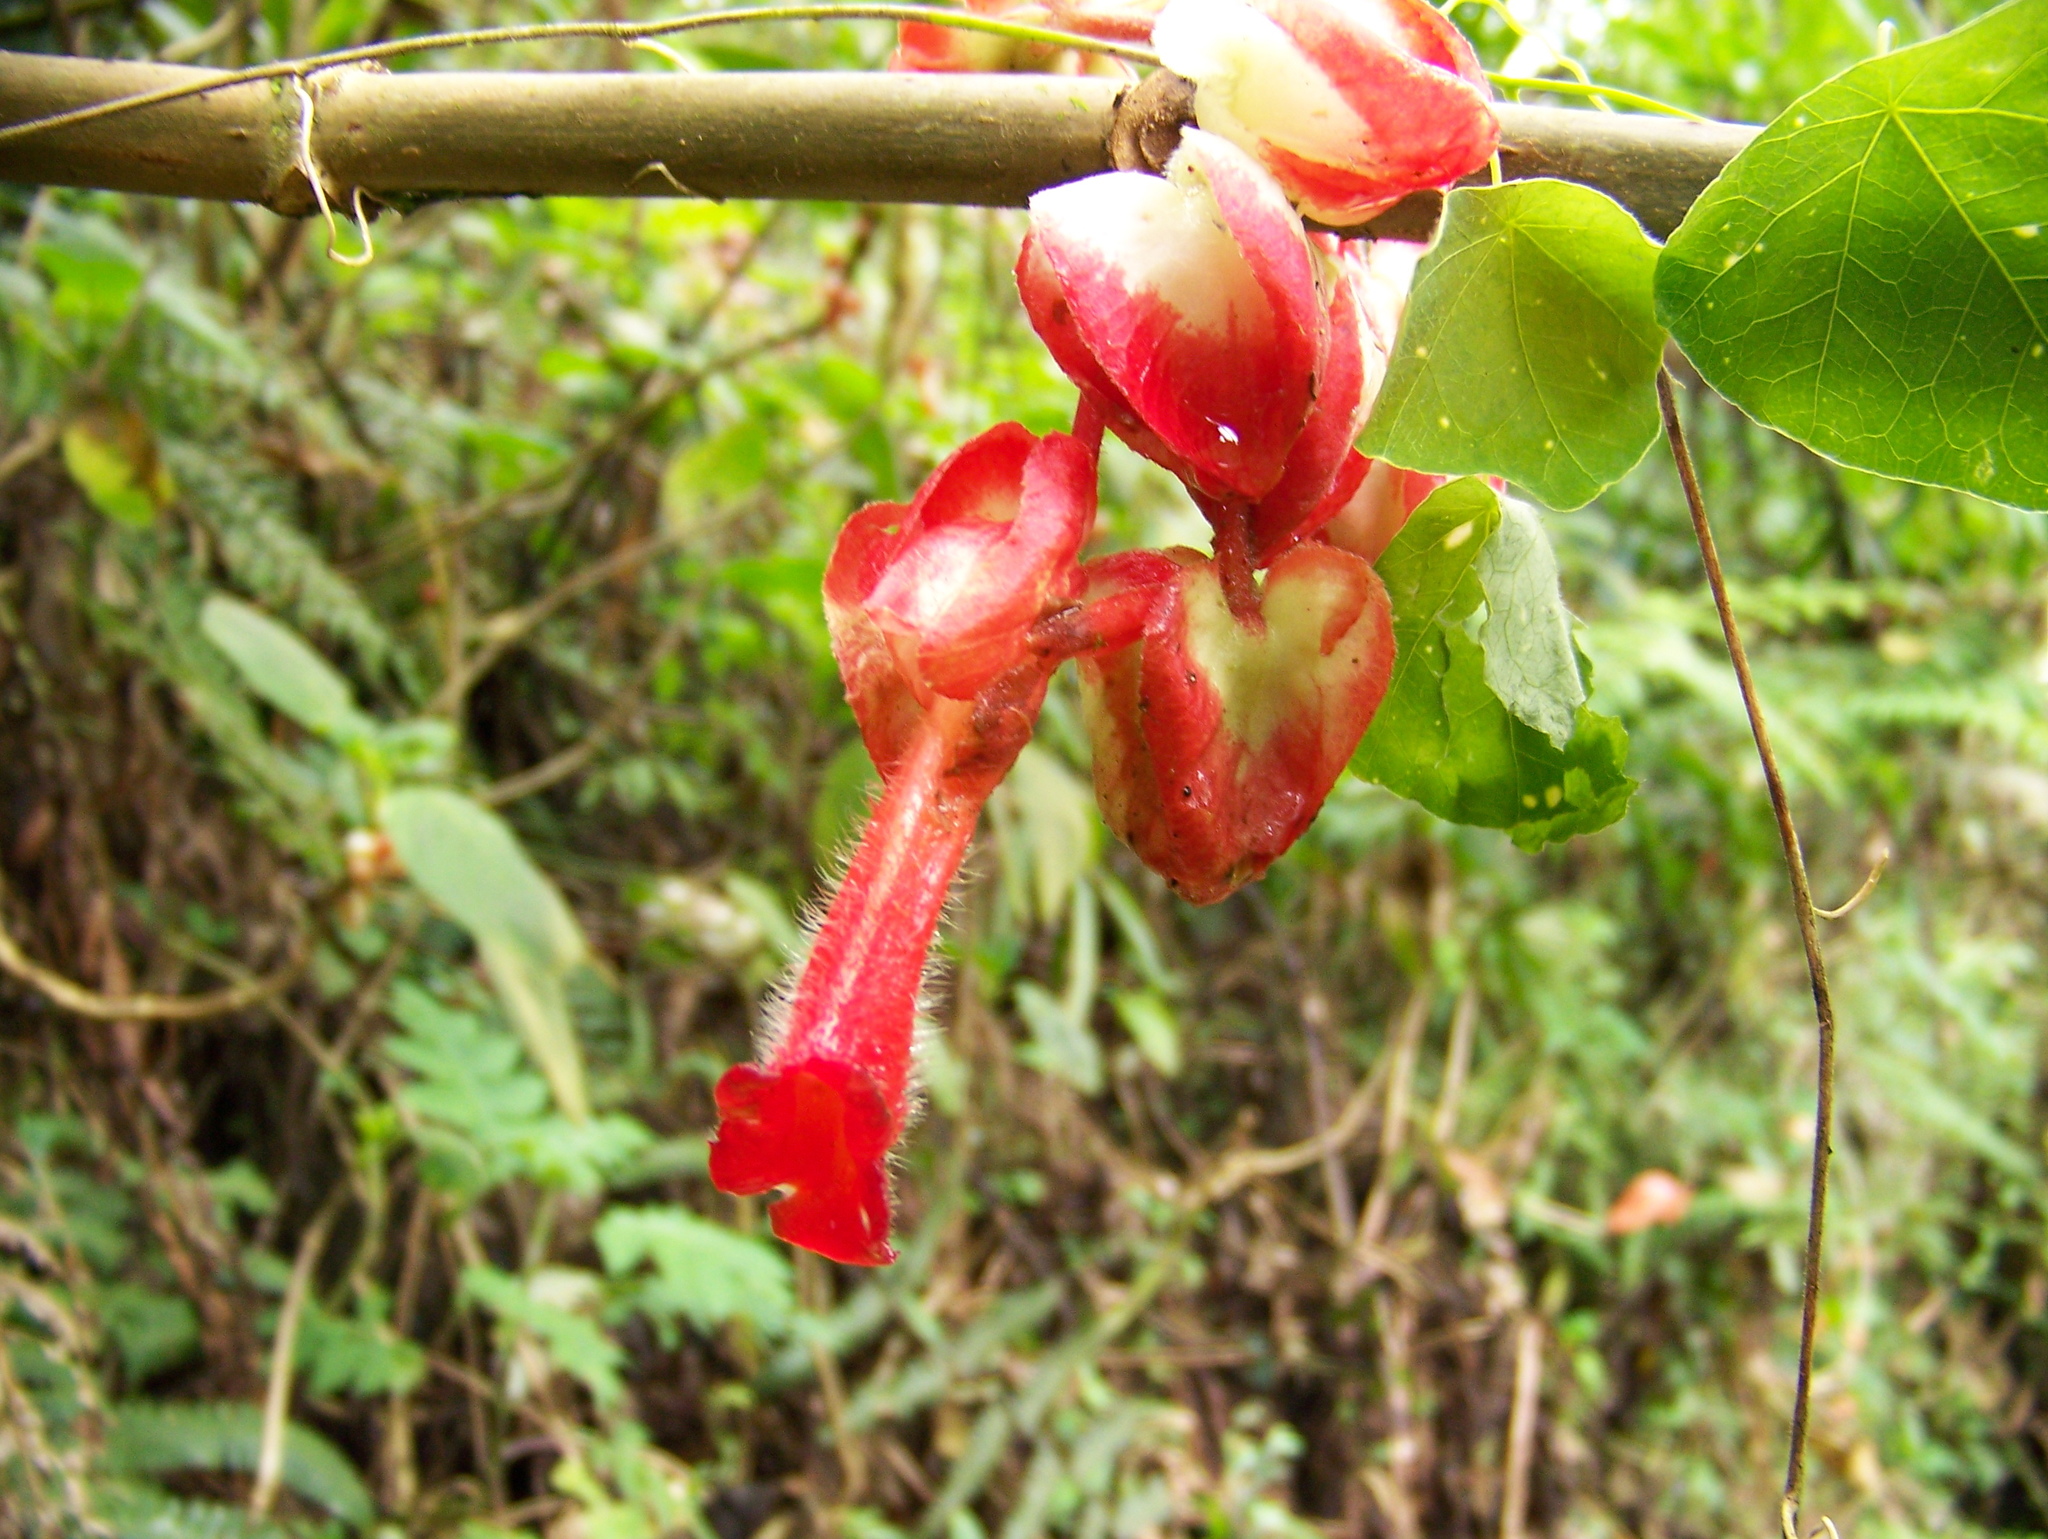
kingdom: Plantae
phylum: Tracheophyta
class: Magnoliopsida
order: Lamiales
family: Gesneriaceae
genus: Glossoloma
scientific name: Glossoloma oblongicalyx
